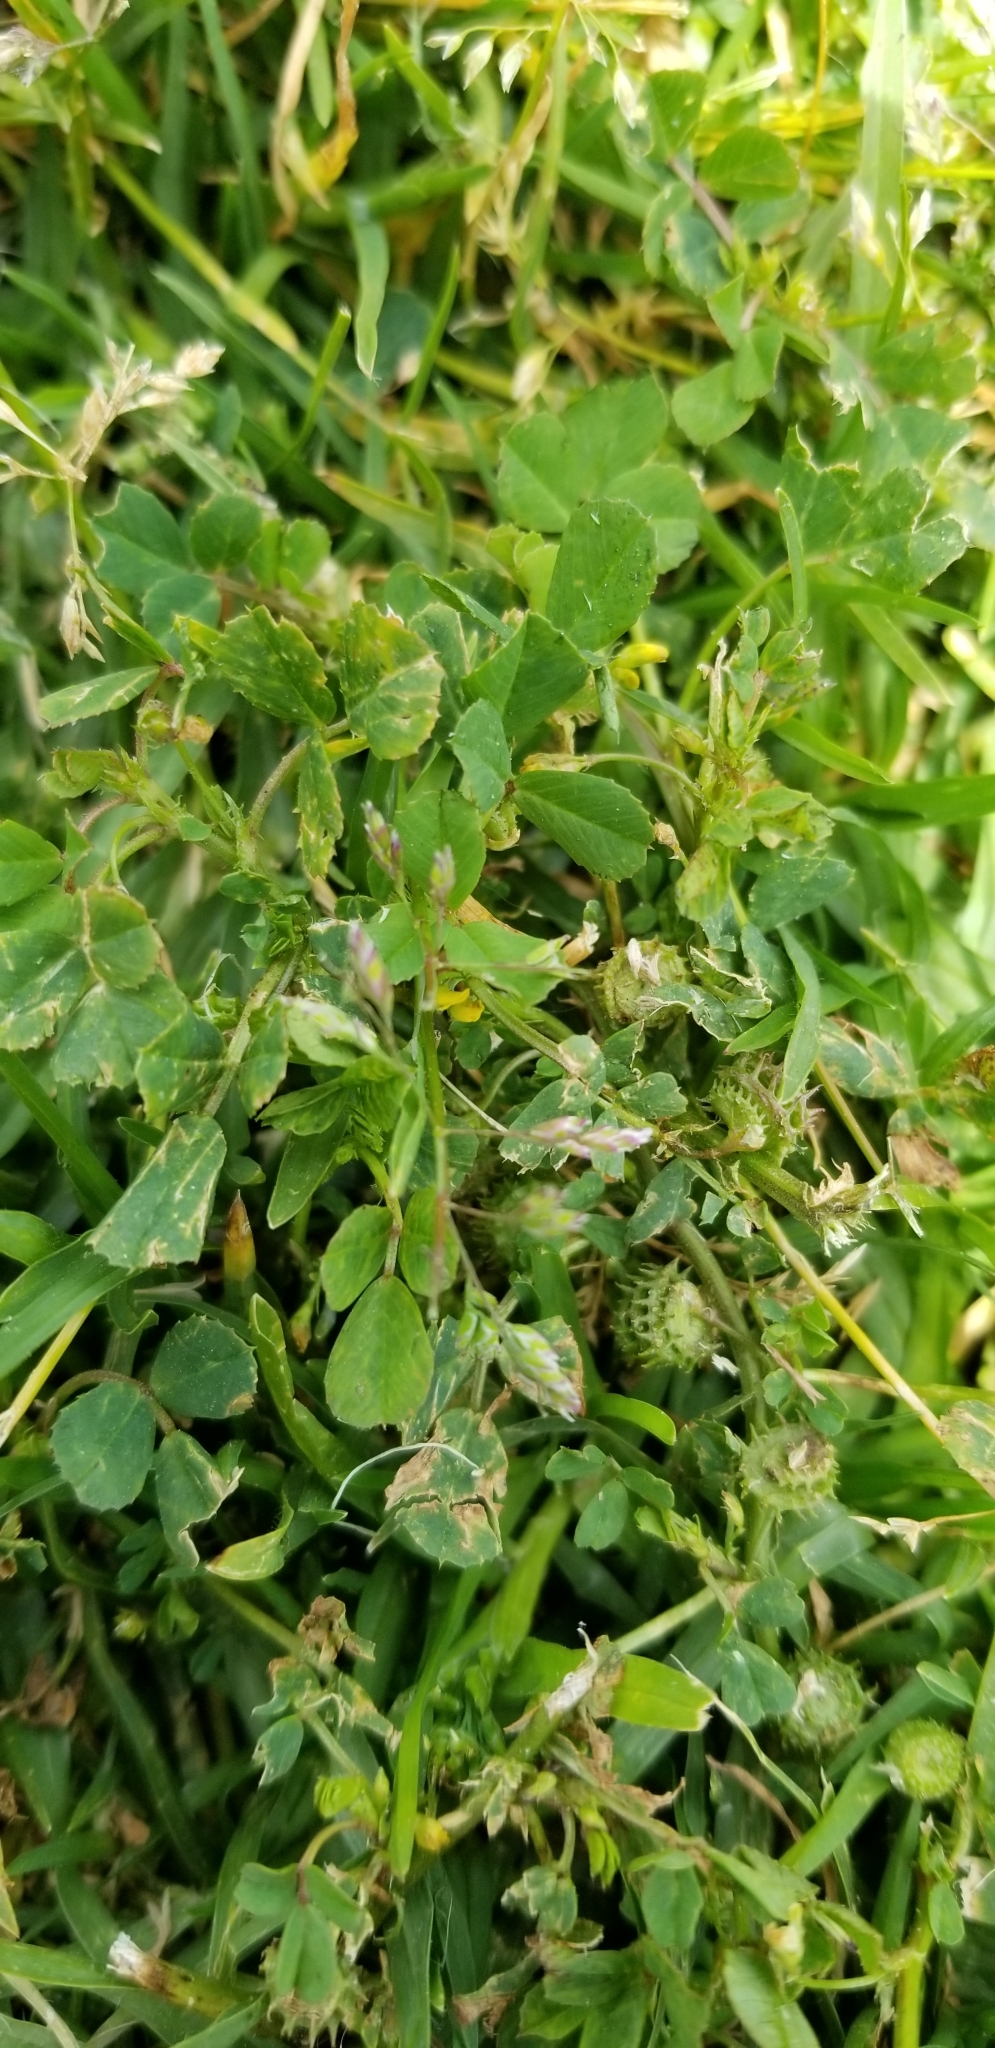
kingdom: Plantae
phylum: Tracheophyta
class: Magnoliopsida
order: Fabales
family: Fabaceae
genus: Medicago
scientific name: Medicago polymorpha
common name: Burclover
